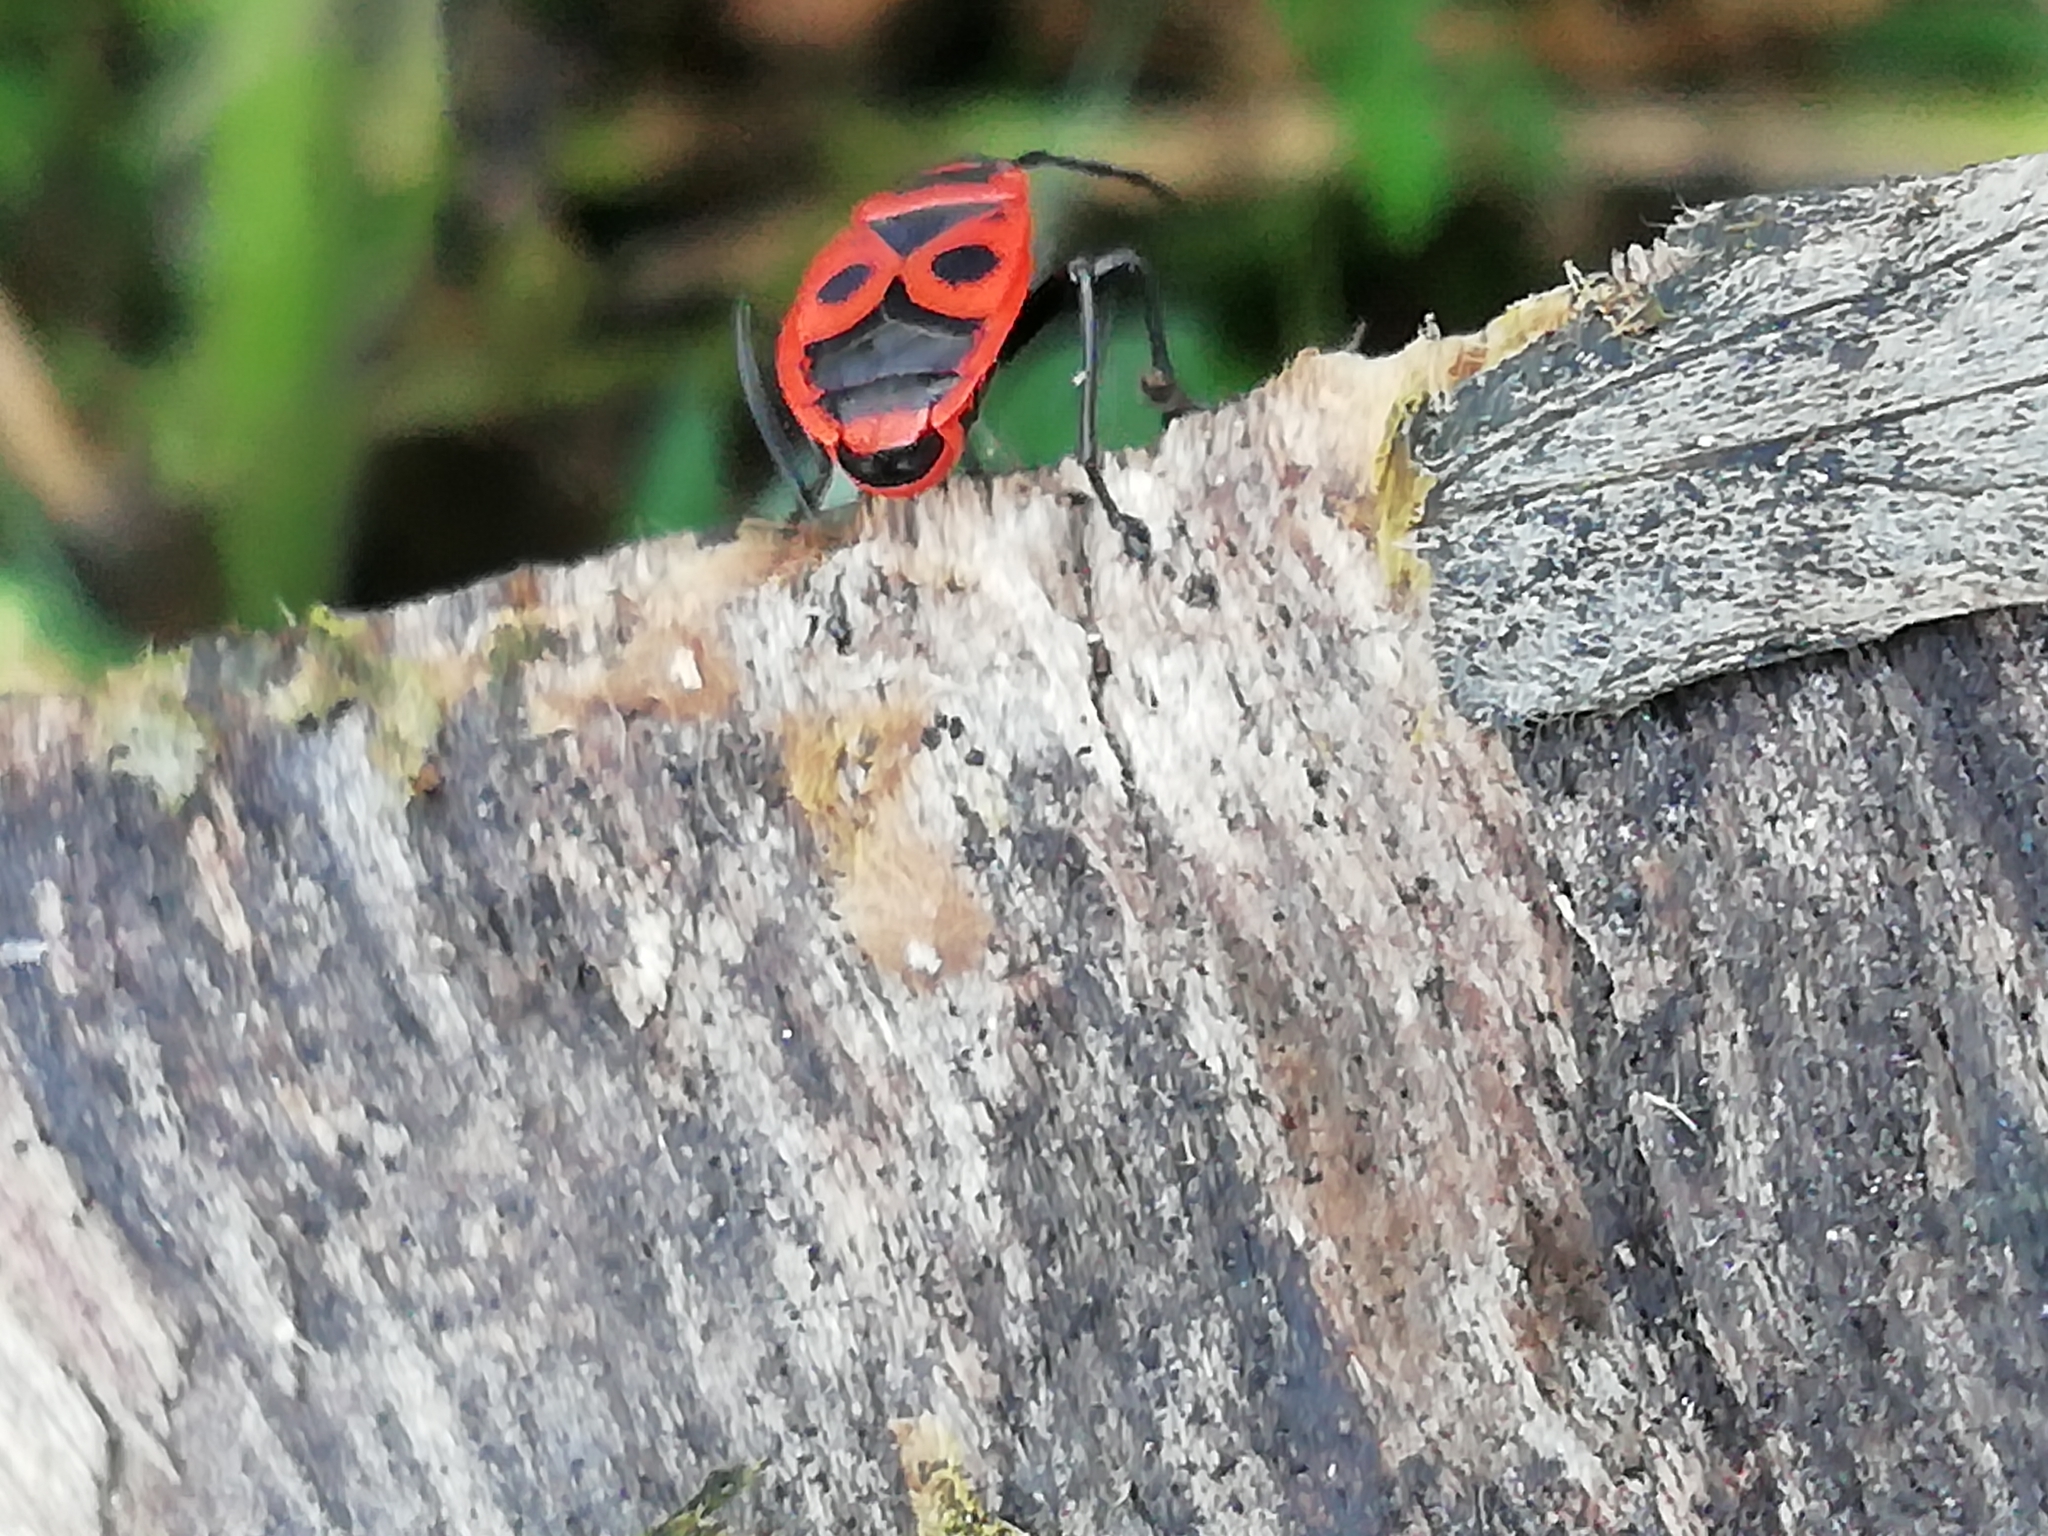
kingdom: Animalia
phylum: Arthropoda
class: Insecta
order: Hemiptera
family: Pyrrhocoridae
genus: Pyrrhocoris
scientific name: Pyrrhocoris apterus
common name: Firebug
